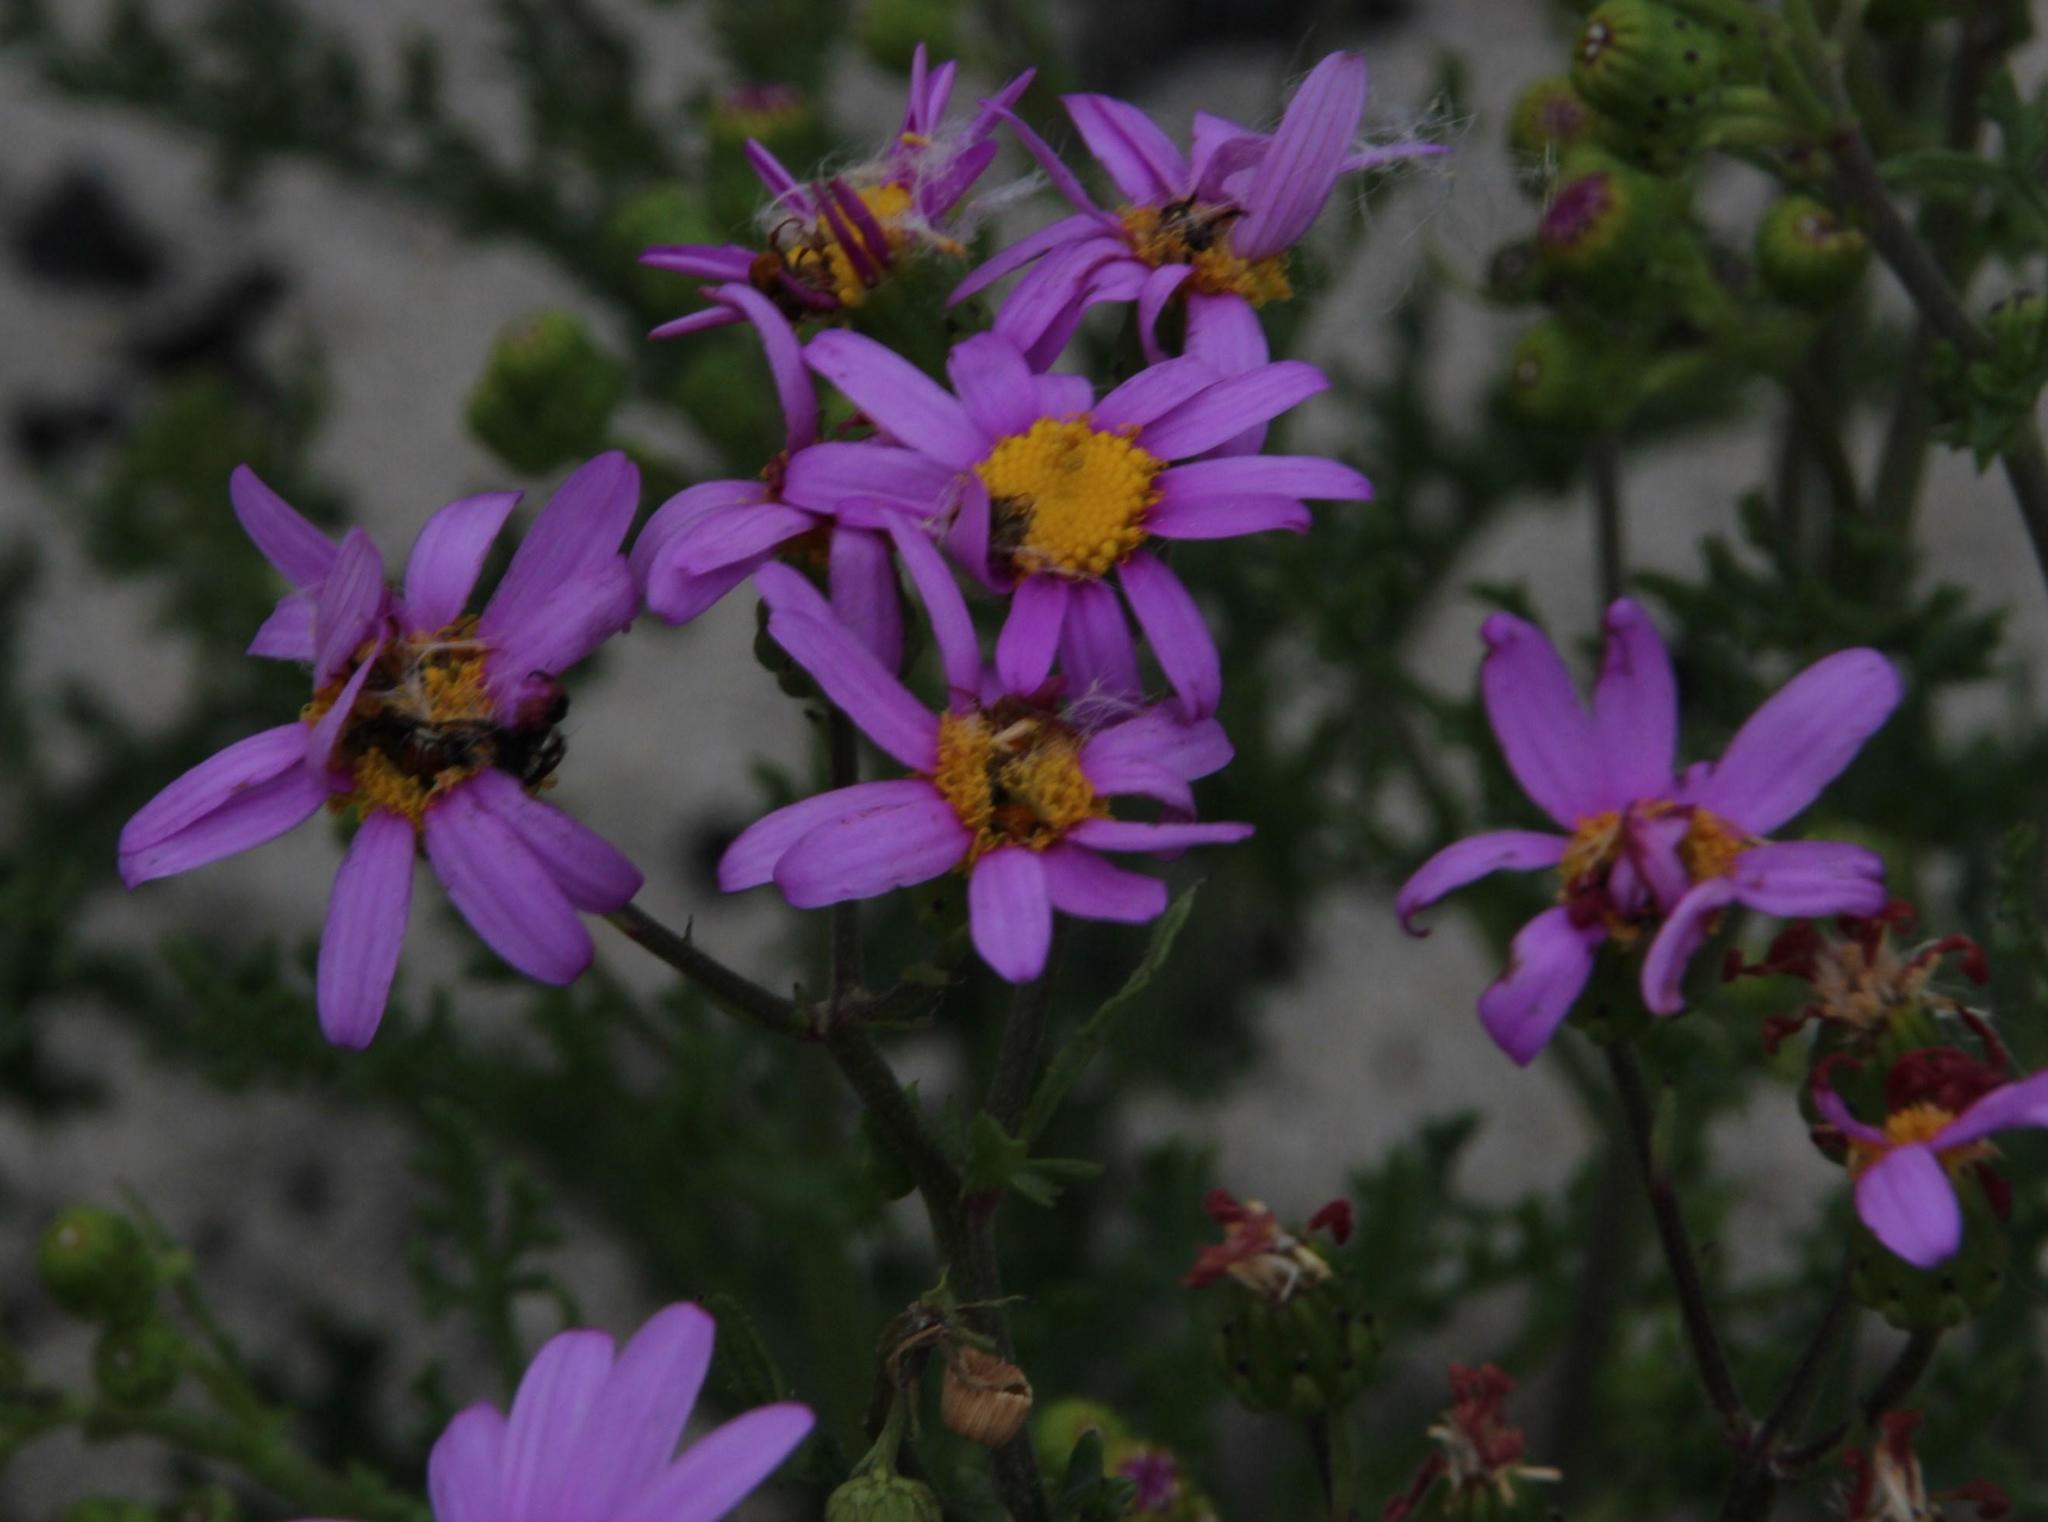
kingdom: Plantae
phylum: Tracheophyta
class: Magnoliopsida
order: Asterales
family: Asteraceae
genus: Senecio
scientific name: Senecio elegans
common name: Purple groundsel
